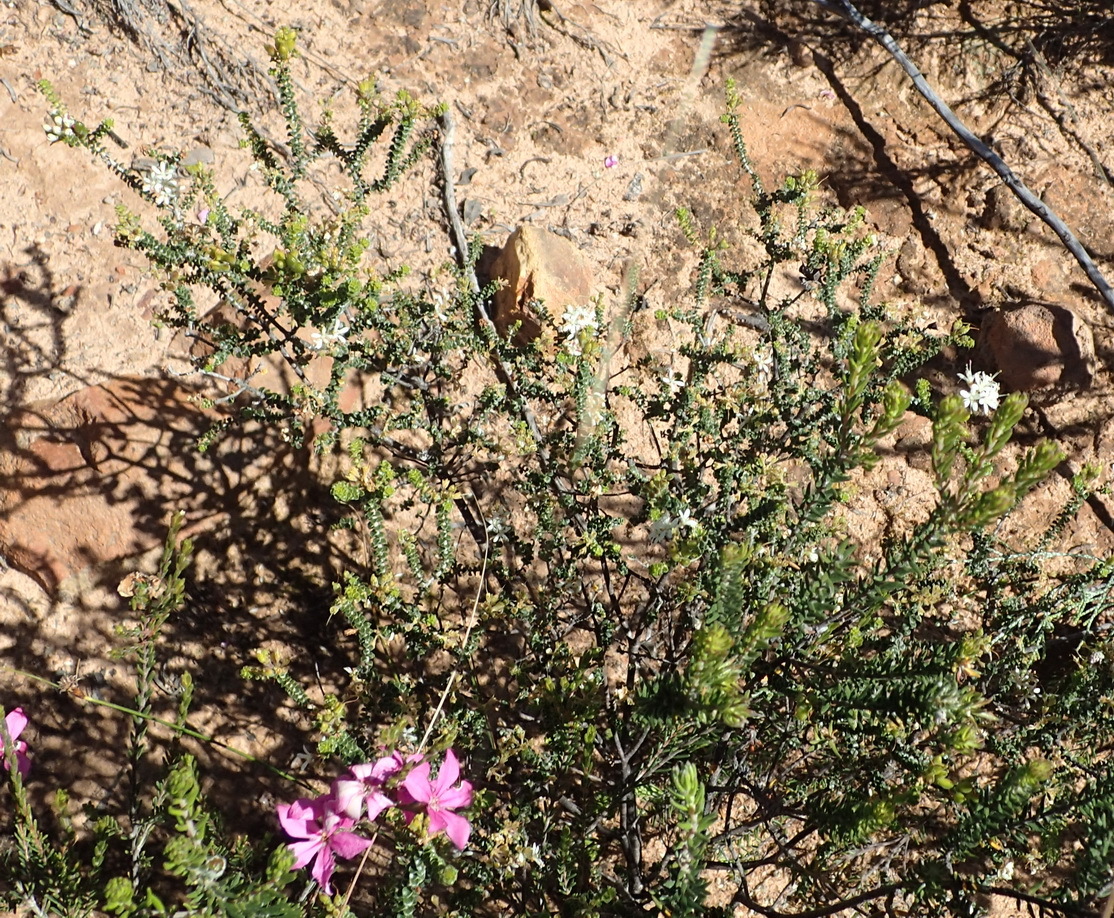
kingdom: Plantae
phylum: Tracheophyta
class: Magnoliopsida
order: Sapindales
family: Rutaceae
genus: Agathosma
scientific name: Agathosma recurvifolia
